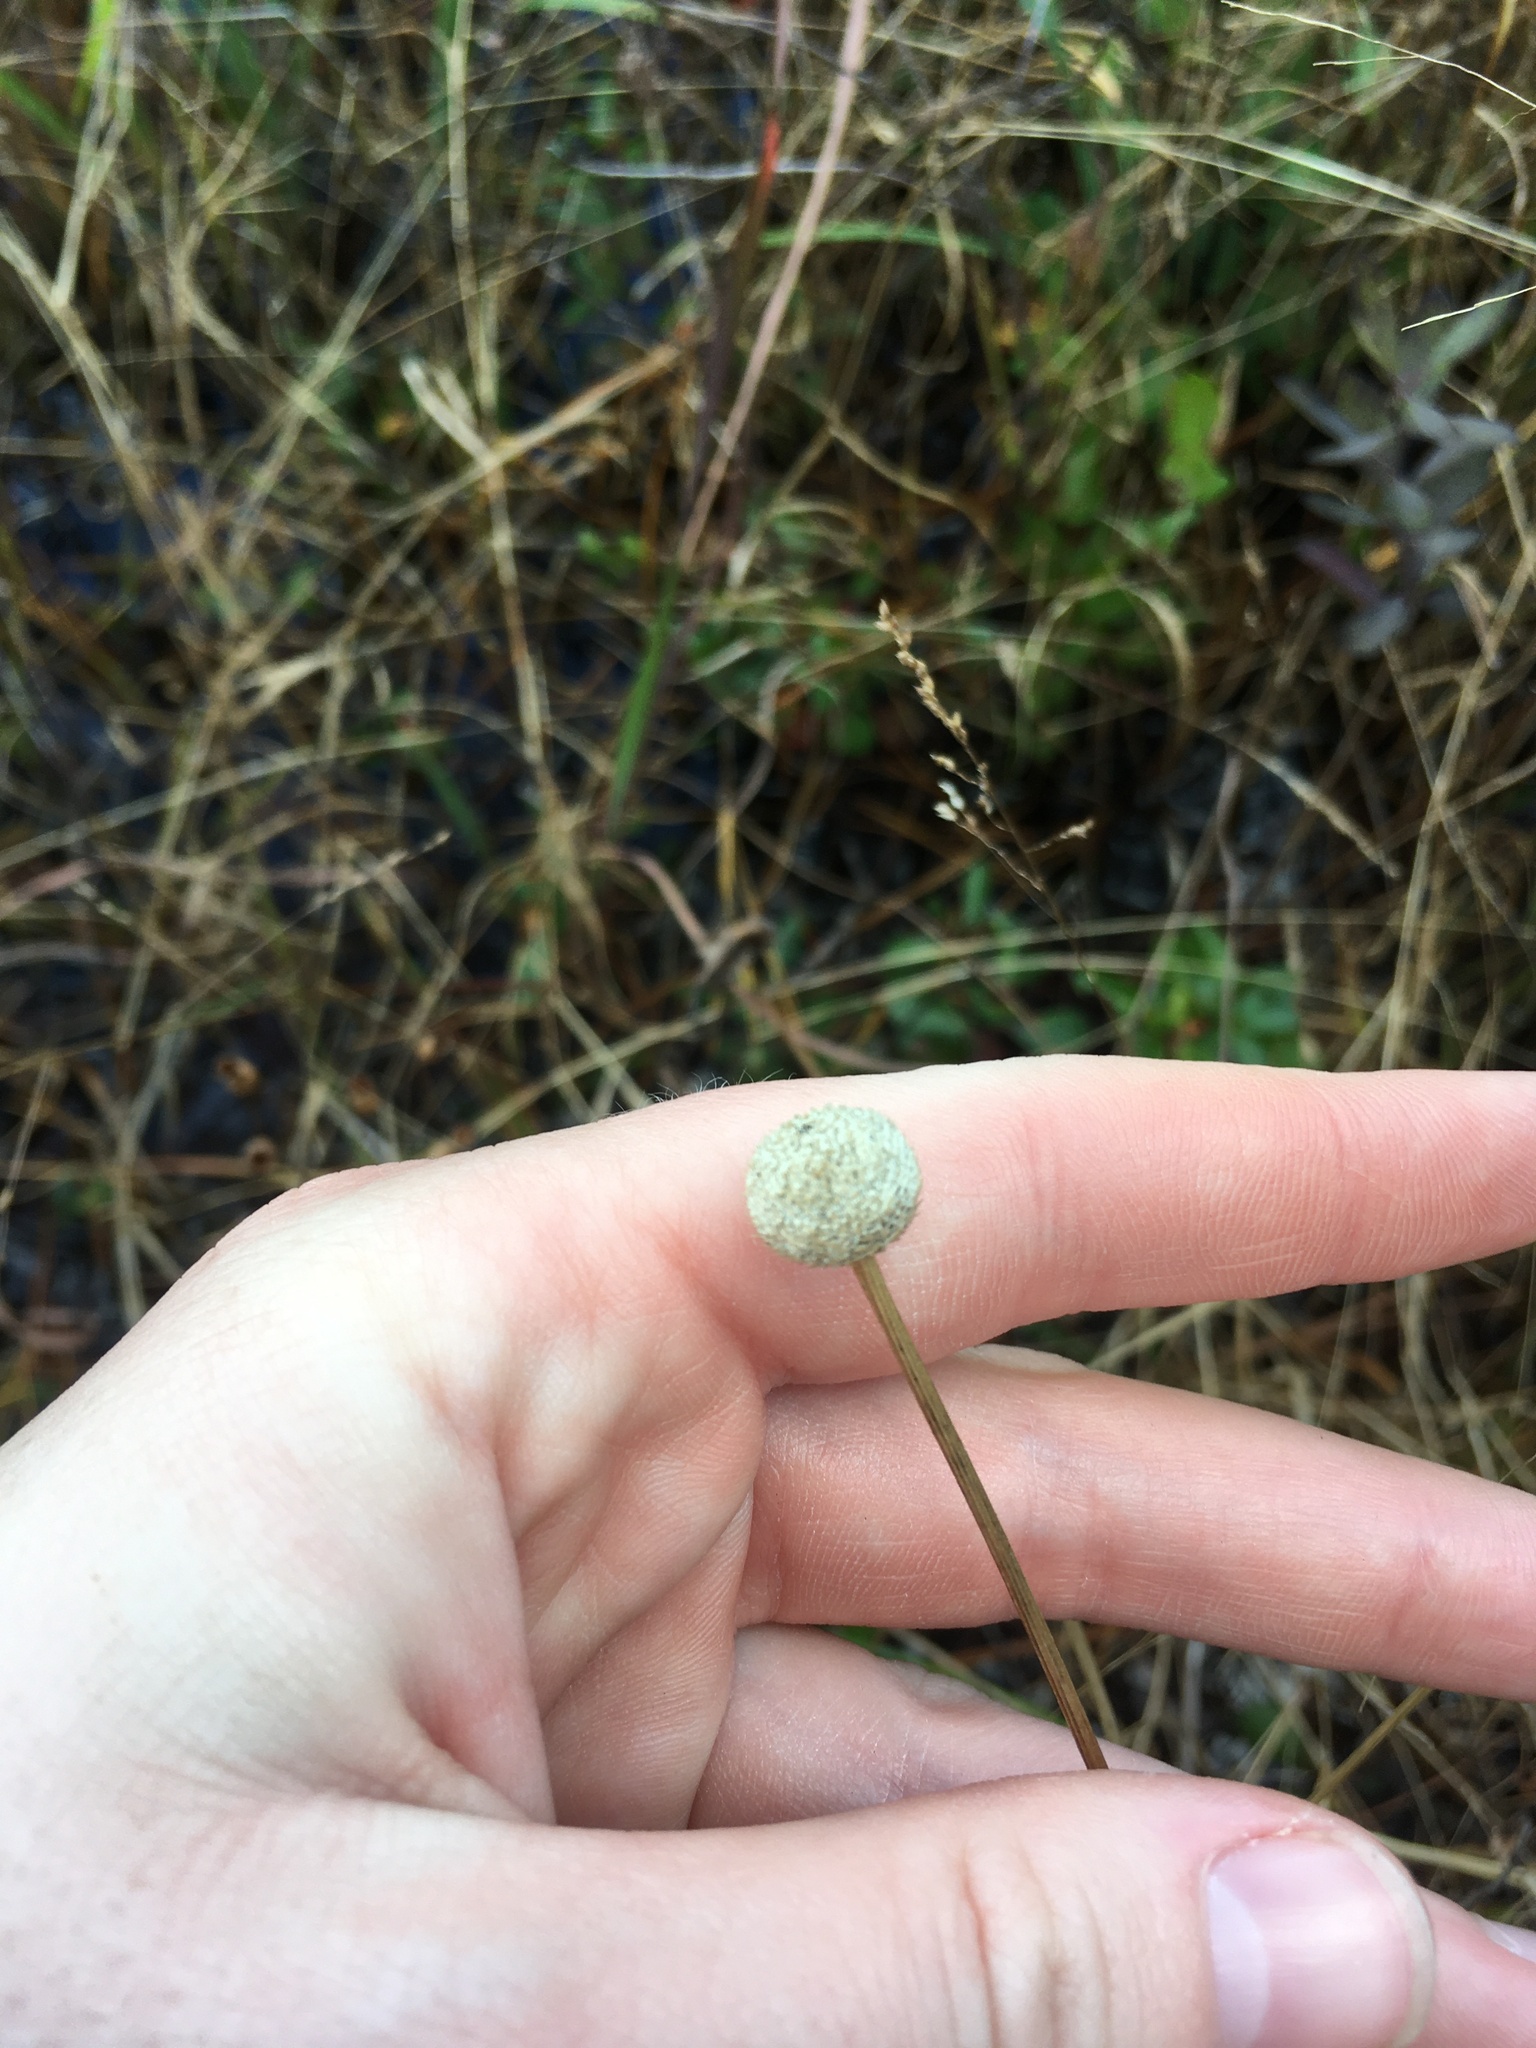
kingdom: Plantae
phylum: Tracheophyta
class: Liliopsida
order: Poales
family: Eriocaulaceae
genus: Eriocaulon
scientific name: Eriocaulon decangulare
